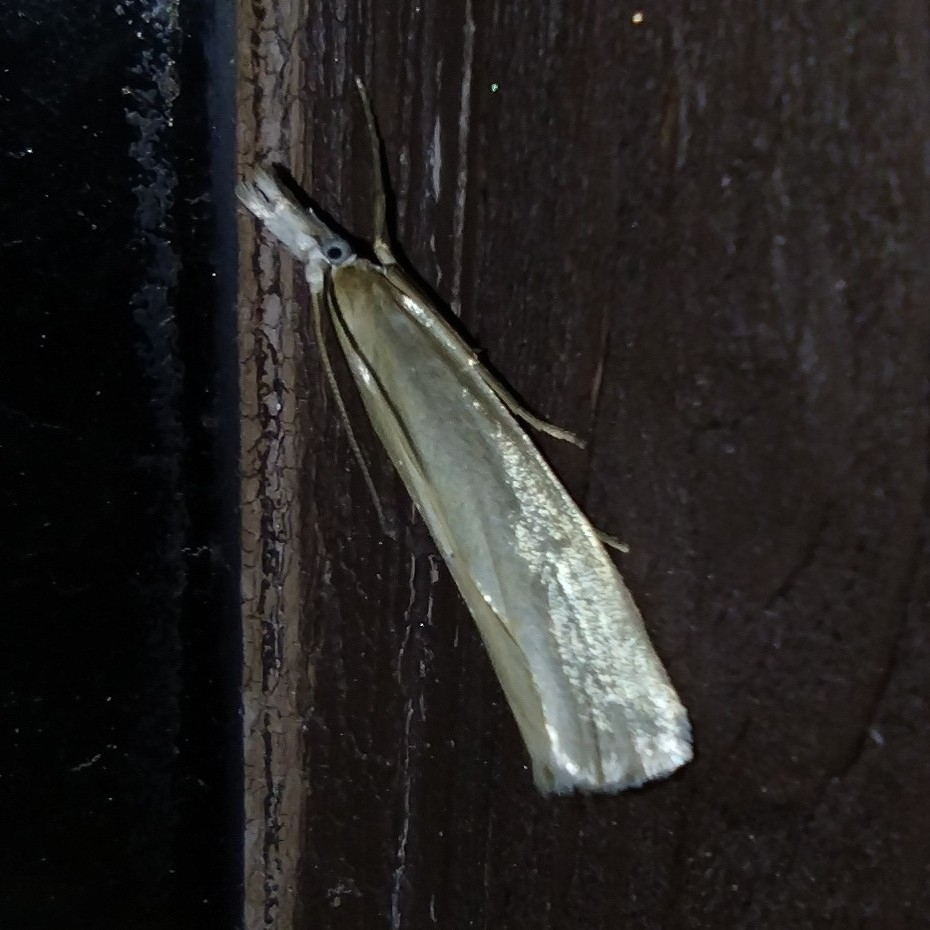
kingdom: Animalia
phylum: Arthropoda
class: Insecta
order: Lepidoptera
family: Crambidae
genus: Crambus
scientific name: Crambus perlellus
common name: Yellow satin veneer
